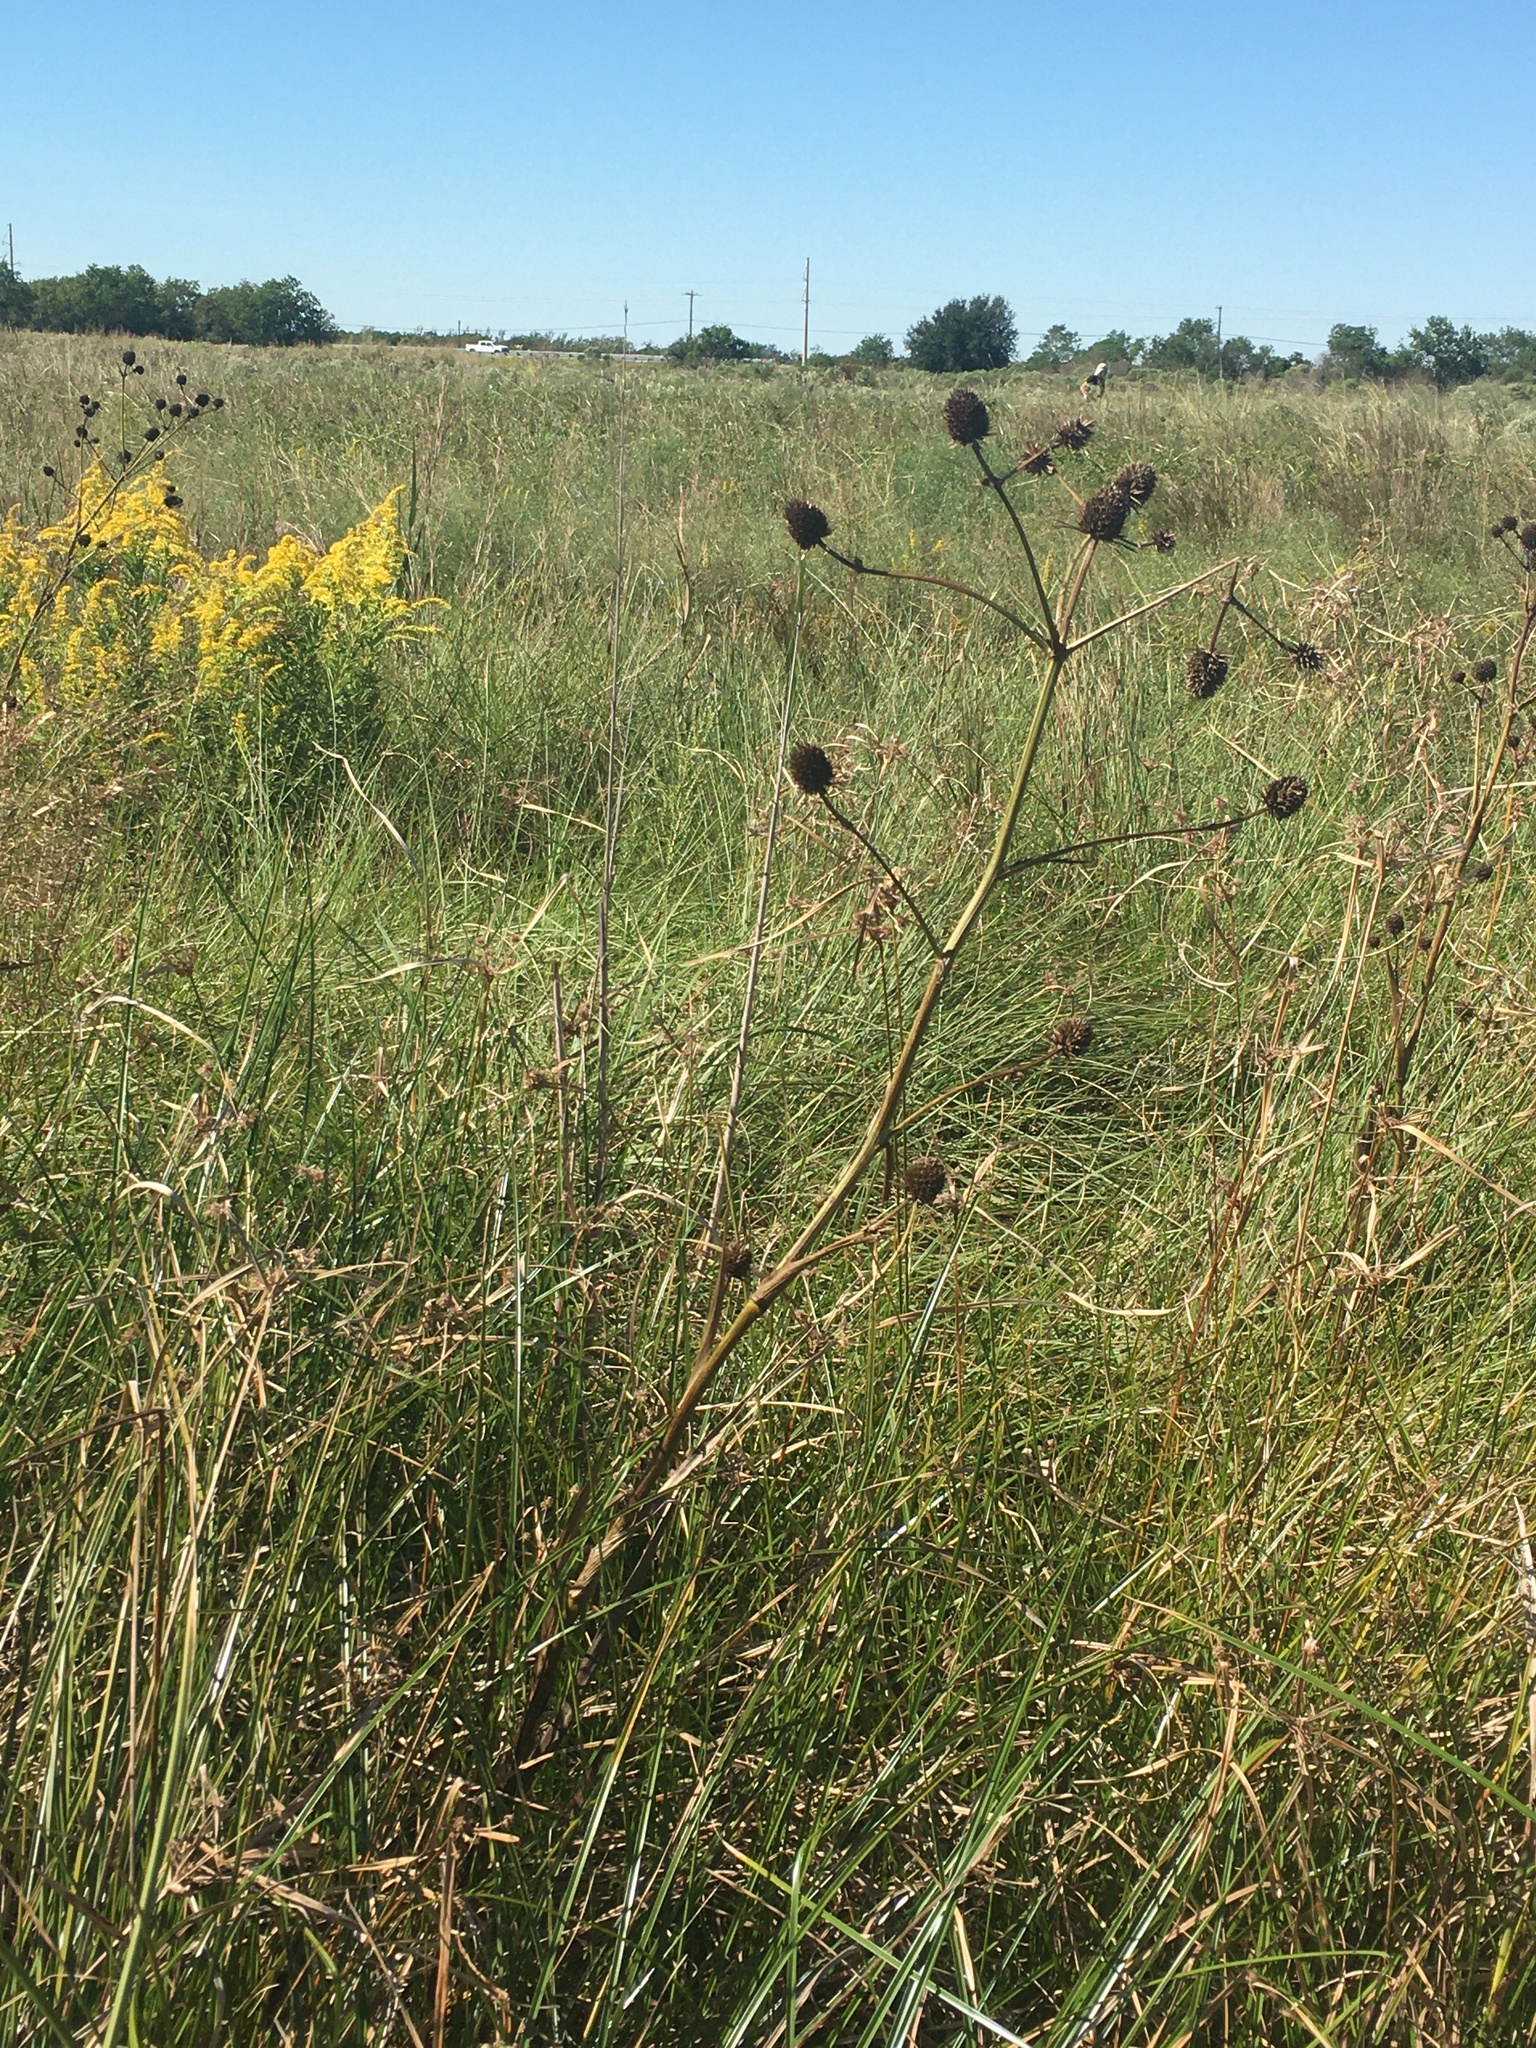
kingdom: Plantae
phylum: Tracheophyta
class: Magnoliopsida
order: Apiales
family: Apiaceae
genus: Eryngium
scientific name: Eryngium yuccifolium
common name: Button eryngo
